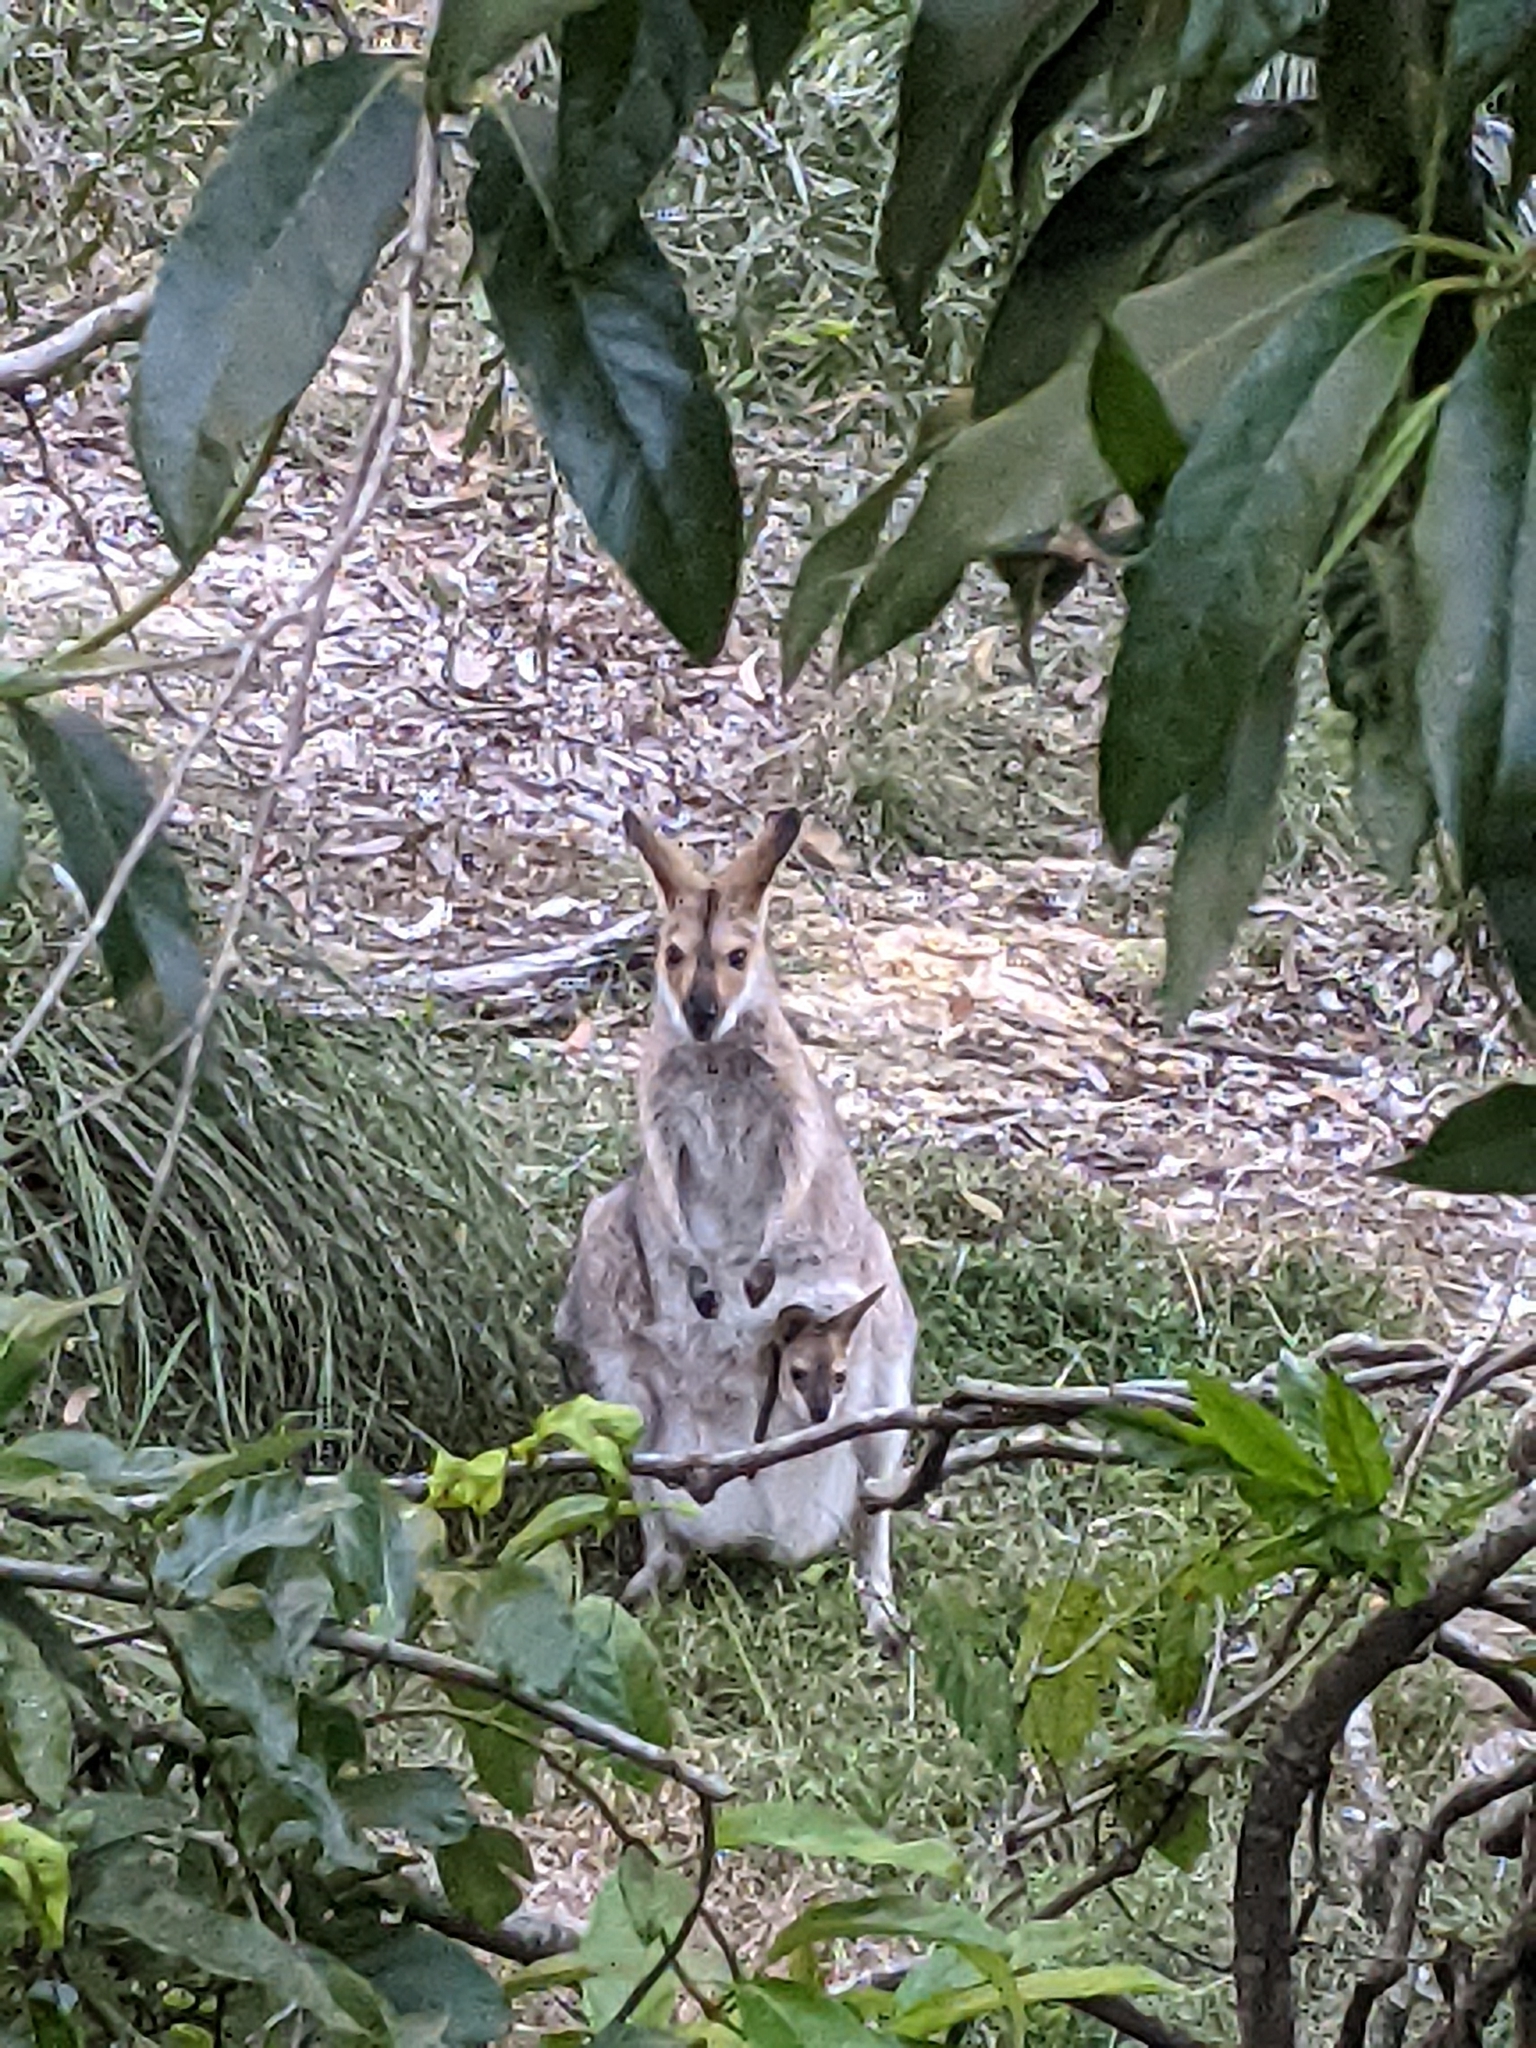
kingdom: Animalia
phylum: Chordata
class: Mammalia
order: Diprotodontia
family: Macropodidae
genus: Notamacropus
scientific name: Notamacropus rufogriseus
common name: Red-necked wallaby
